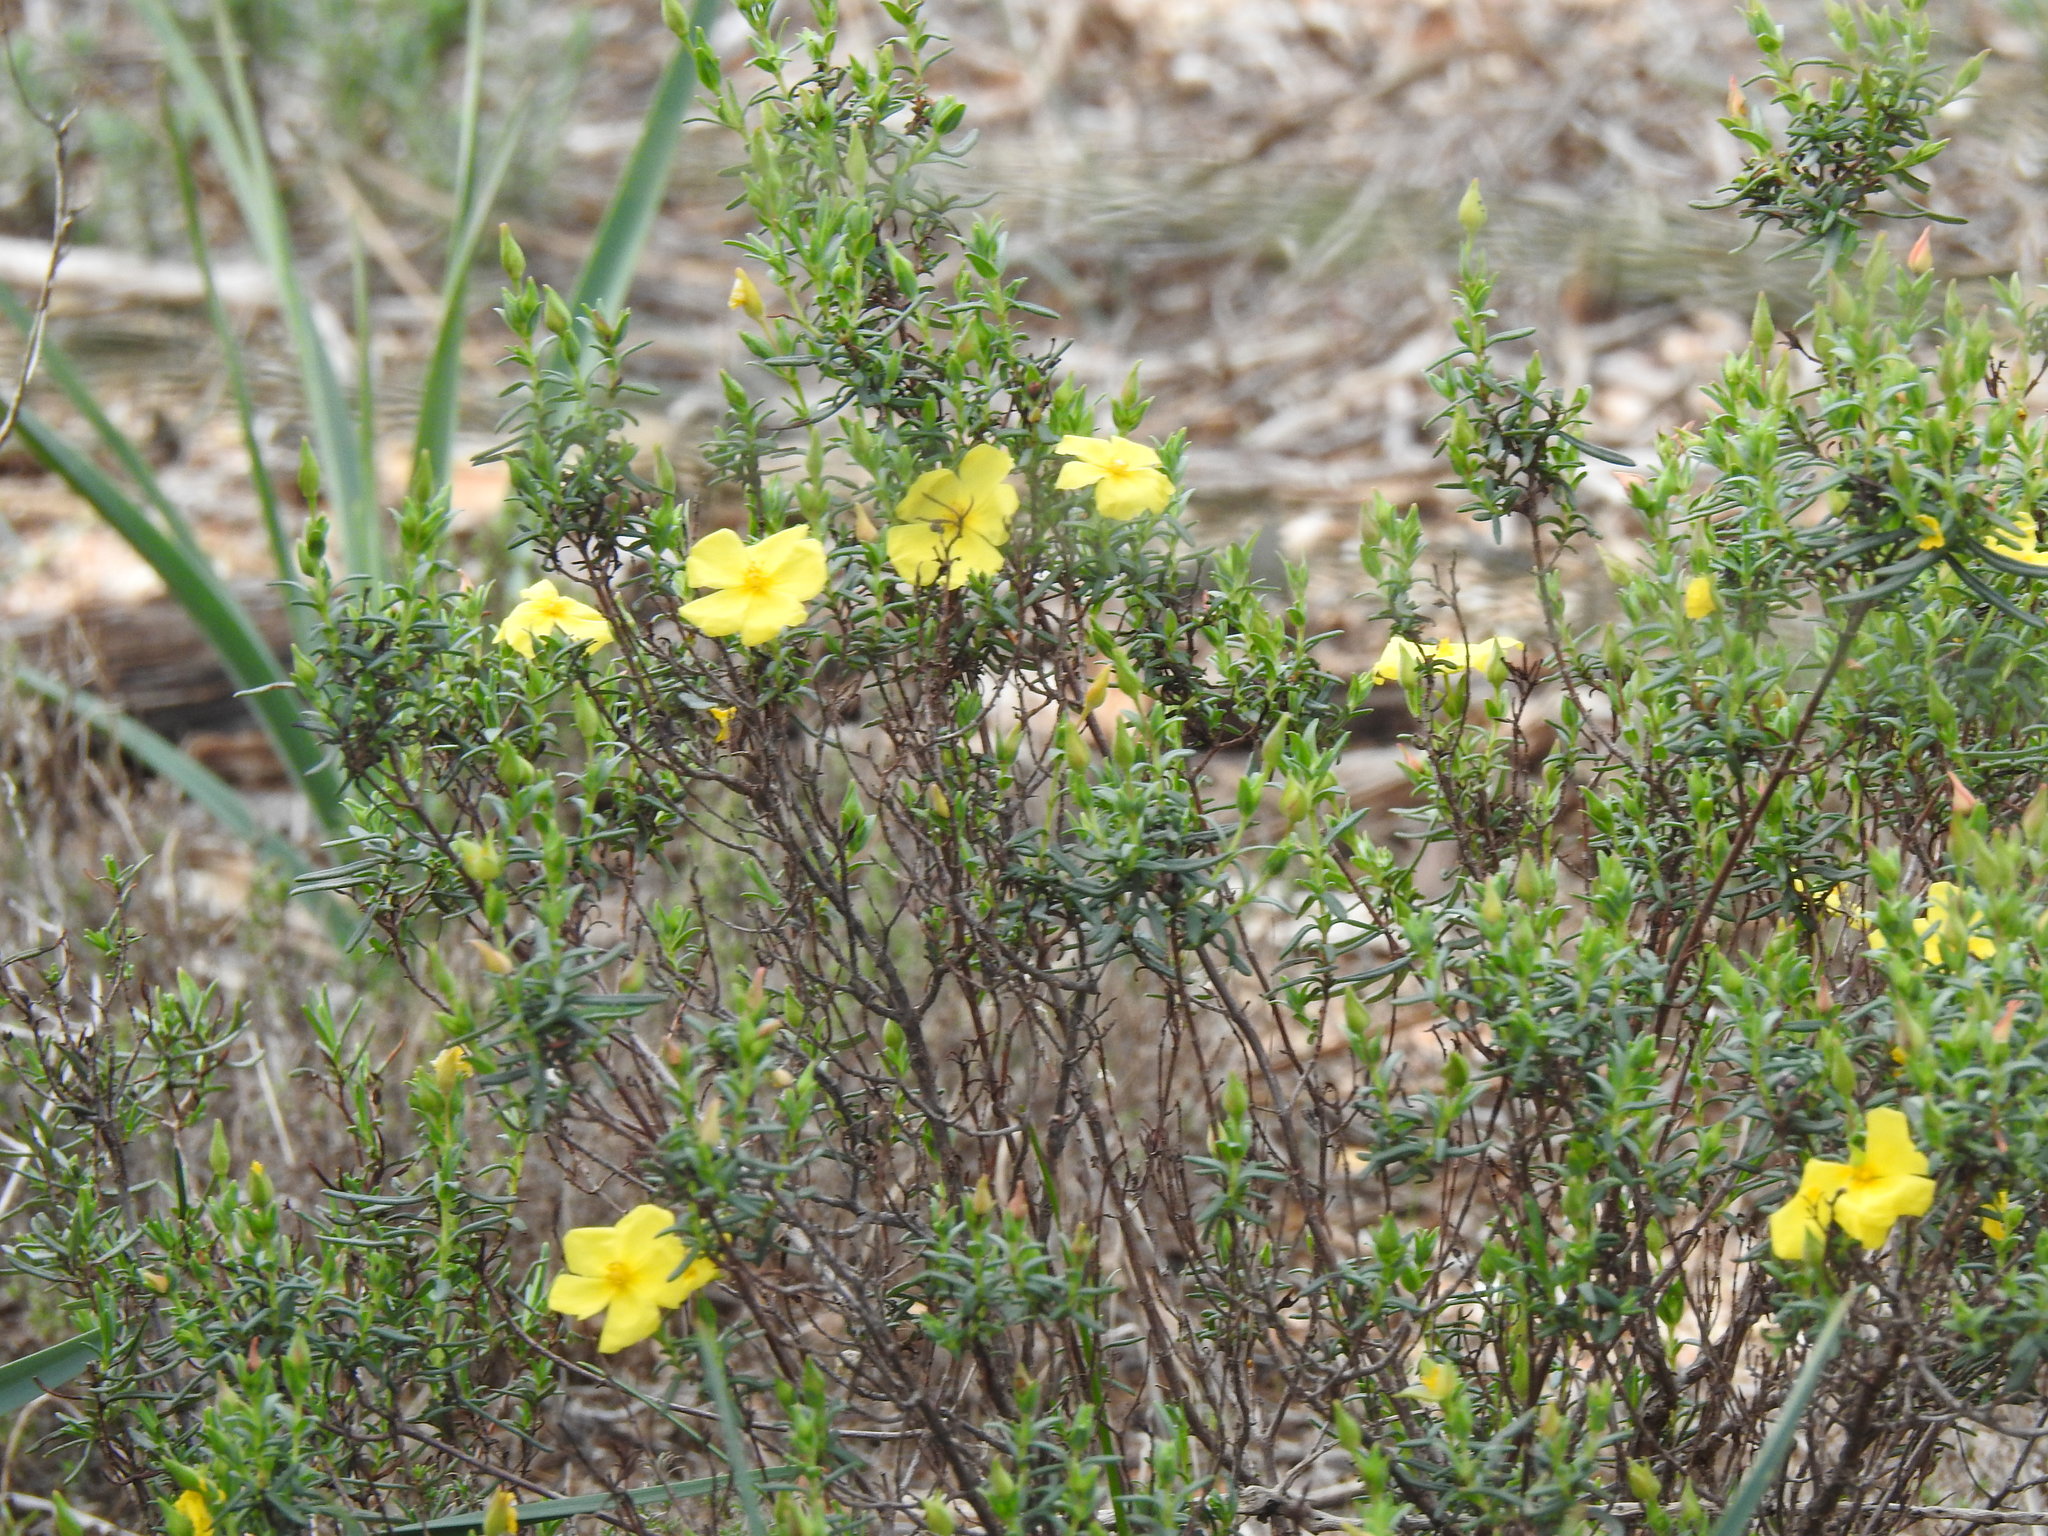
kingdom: Plantae
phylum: Tracheophyta
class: Magnoliopsida
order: Malvales
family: Cistaceae
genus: Halimium
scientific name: Halimium calycinum
